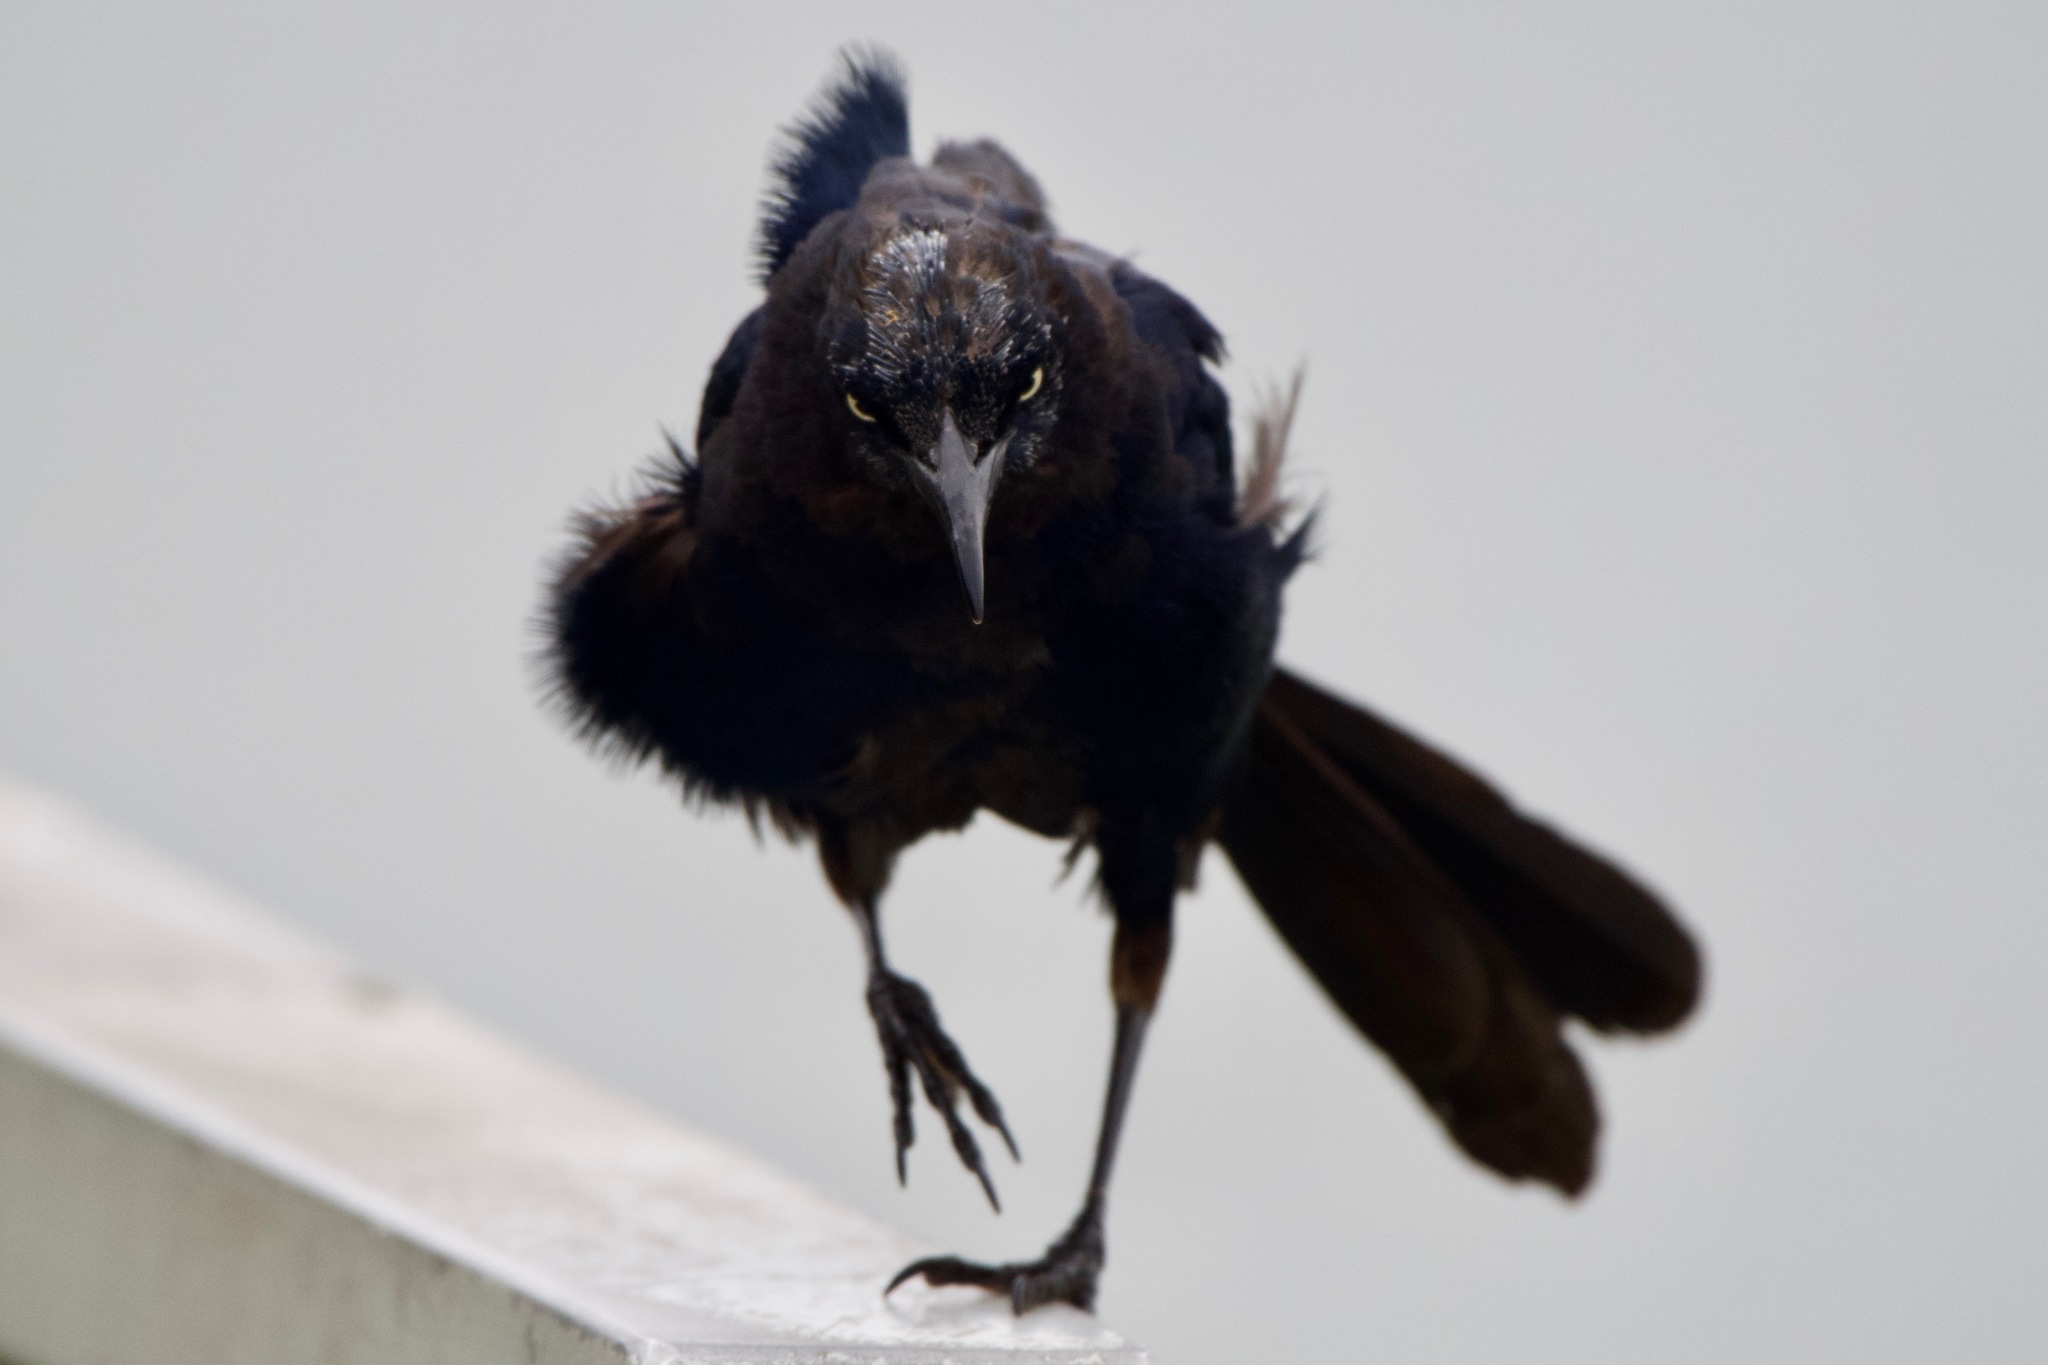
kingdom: Animalia
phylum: Chordata
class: Aves
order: Passeriformes
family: Icteridae
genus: Quiscalus
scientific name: Quiscalus mexicanus
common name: Great-tailed grackle
